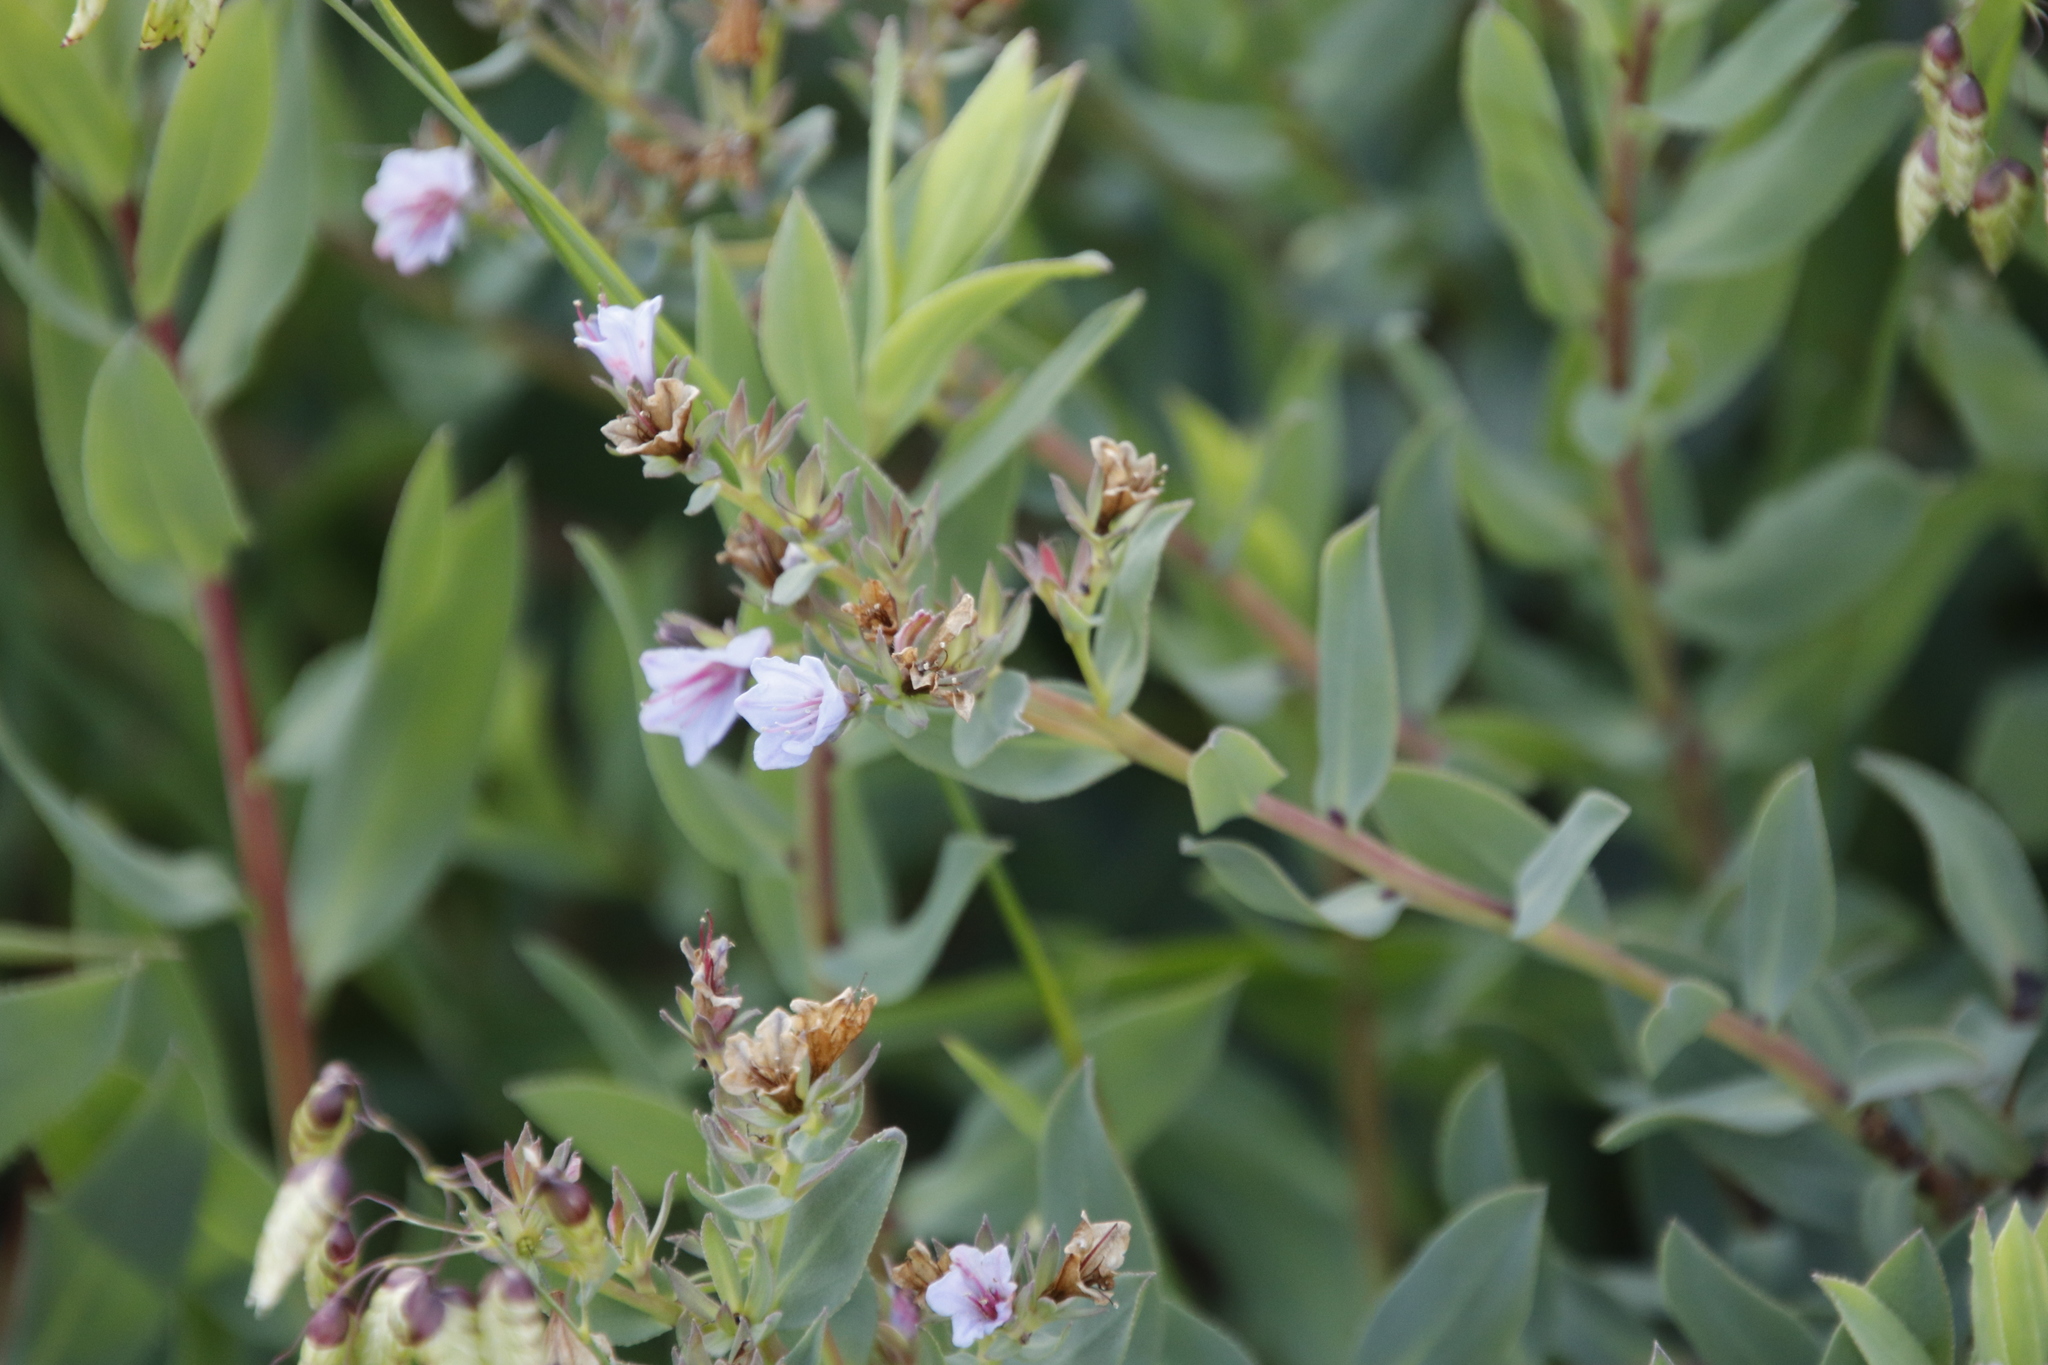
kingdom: Plantae
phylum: Tracheophyta
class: Magnoliopsida
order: Boraginales
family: Boraginaceae
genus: Lobostemon
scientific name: Lobostemon fruticosus
